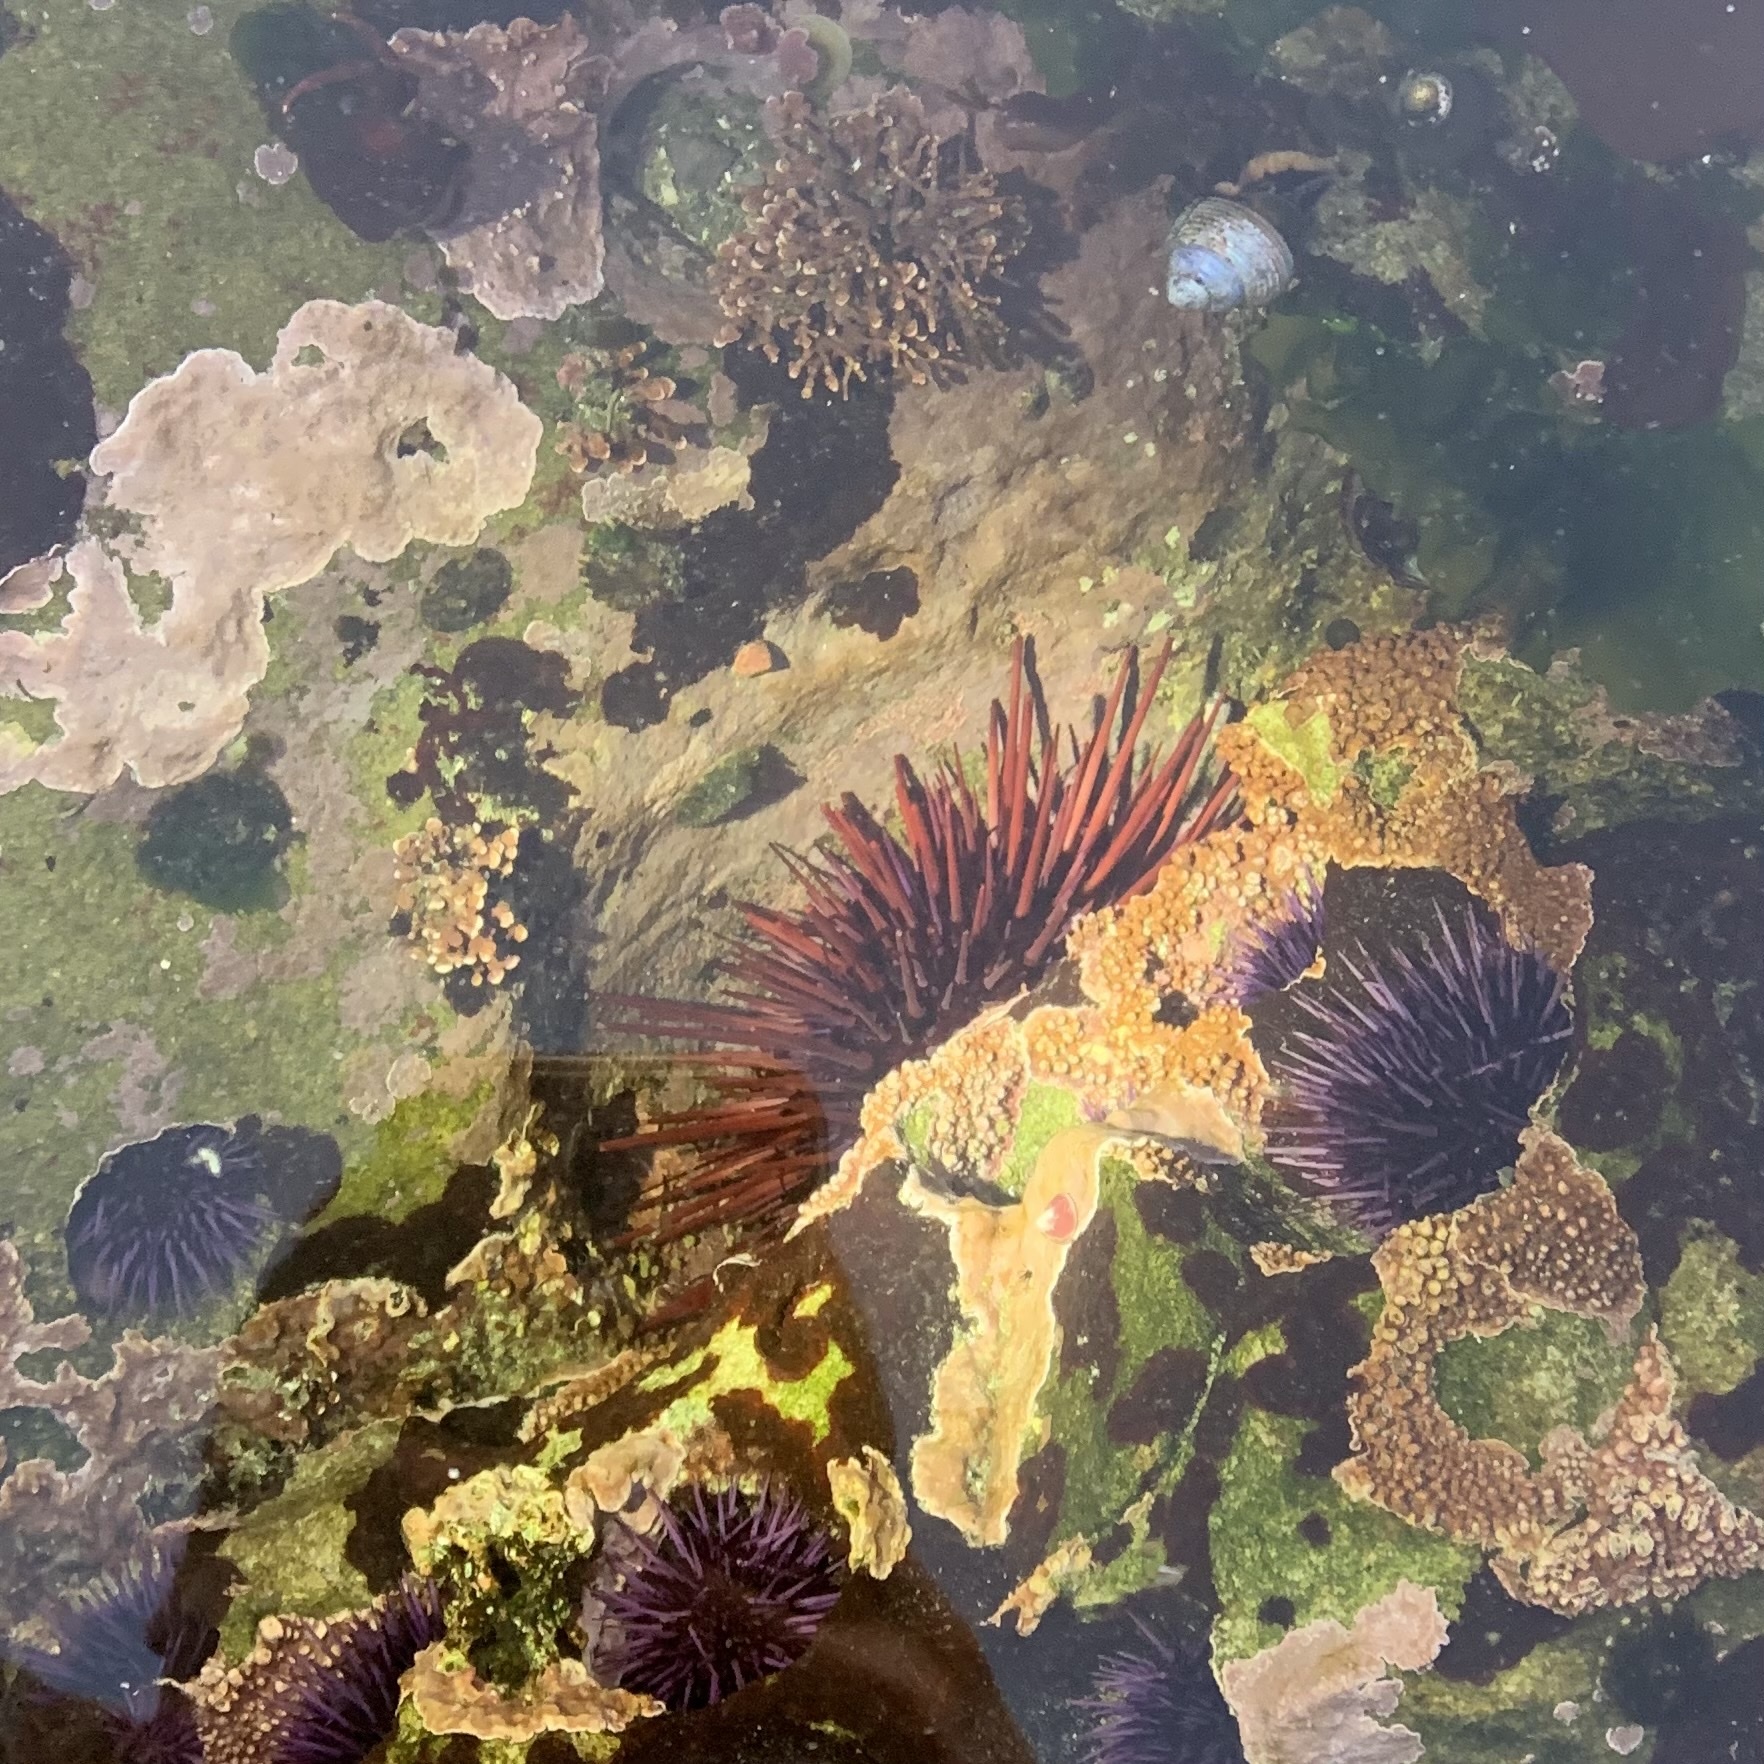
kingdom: Animalia
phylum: Echinodermata
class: Echinoidea
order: Camarodonta
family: Strongylocentrotidae
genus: Mesocentrotus
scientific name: Mesocentrotus franciscanus
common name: Red sea urchin
